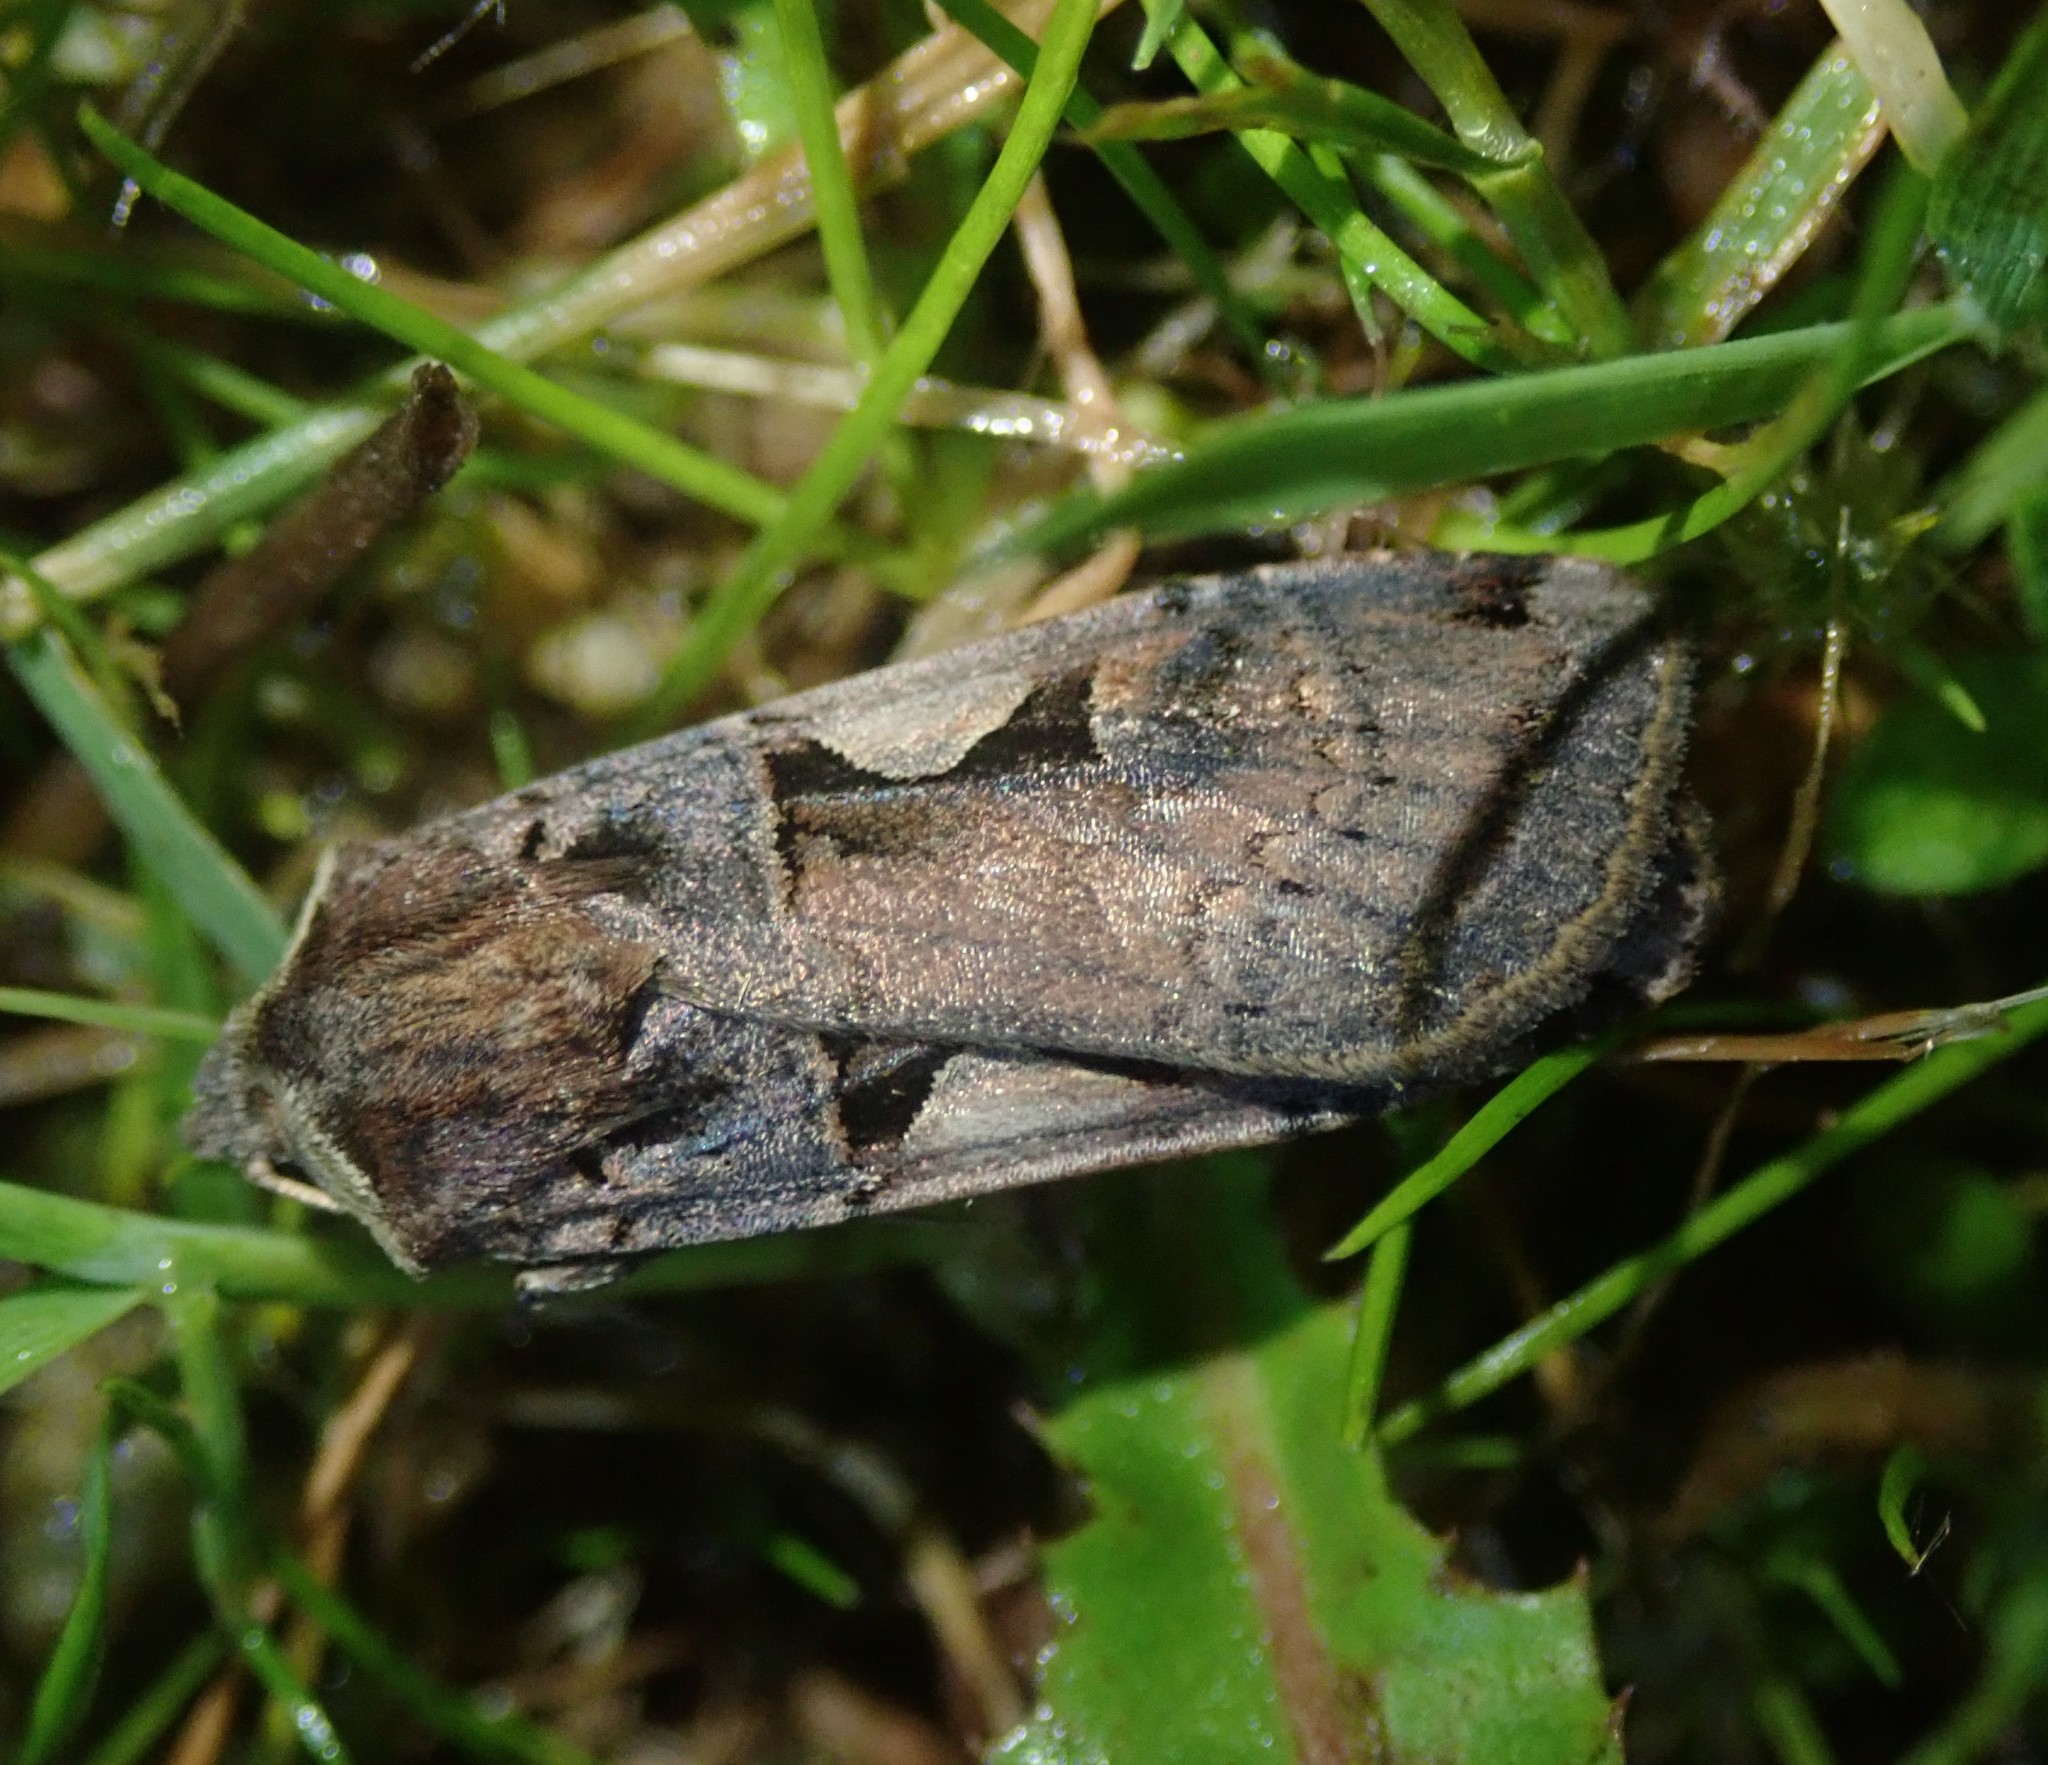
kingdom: Animalia
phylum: Arthropoda
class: Insecta
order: Lepidoptera
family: Noctuidae
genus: Xestia
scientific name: Xestia c-nigrum
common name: Setaceous hebrew character
